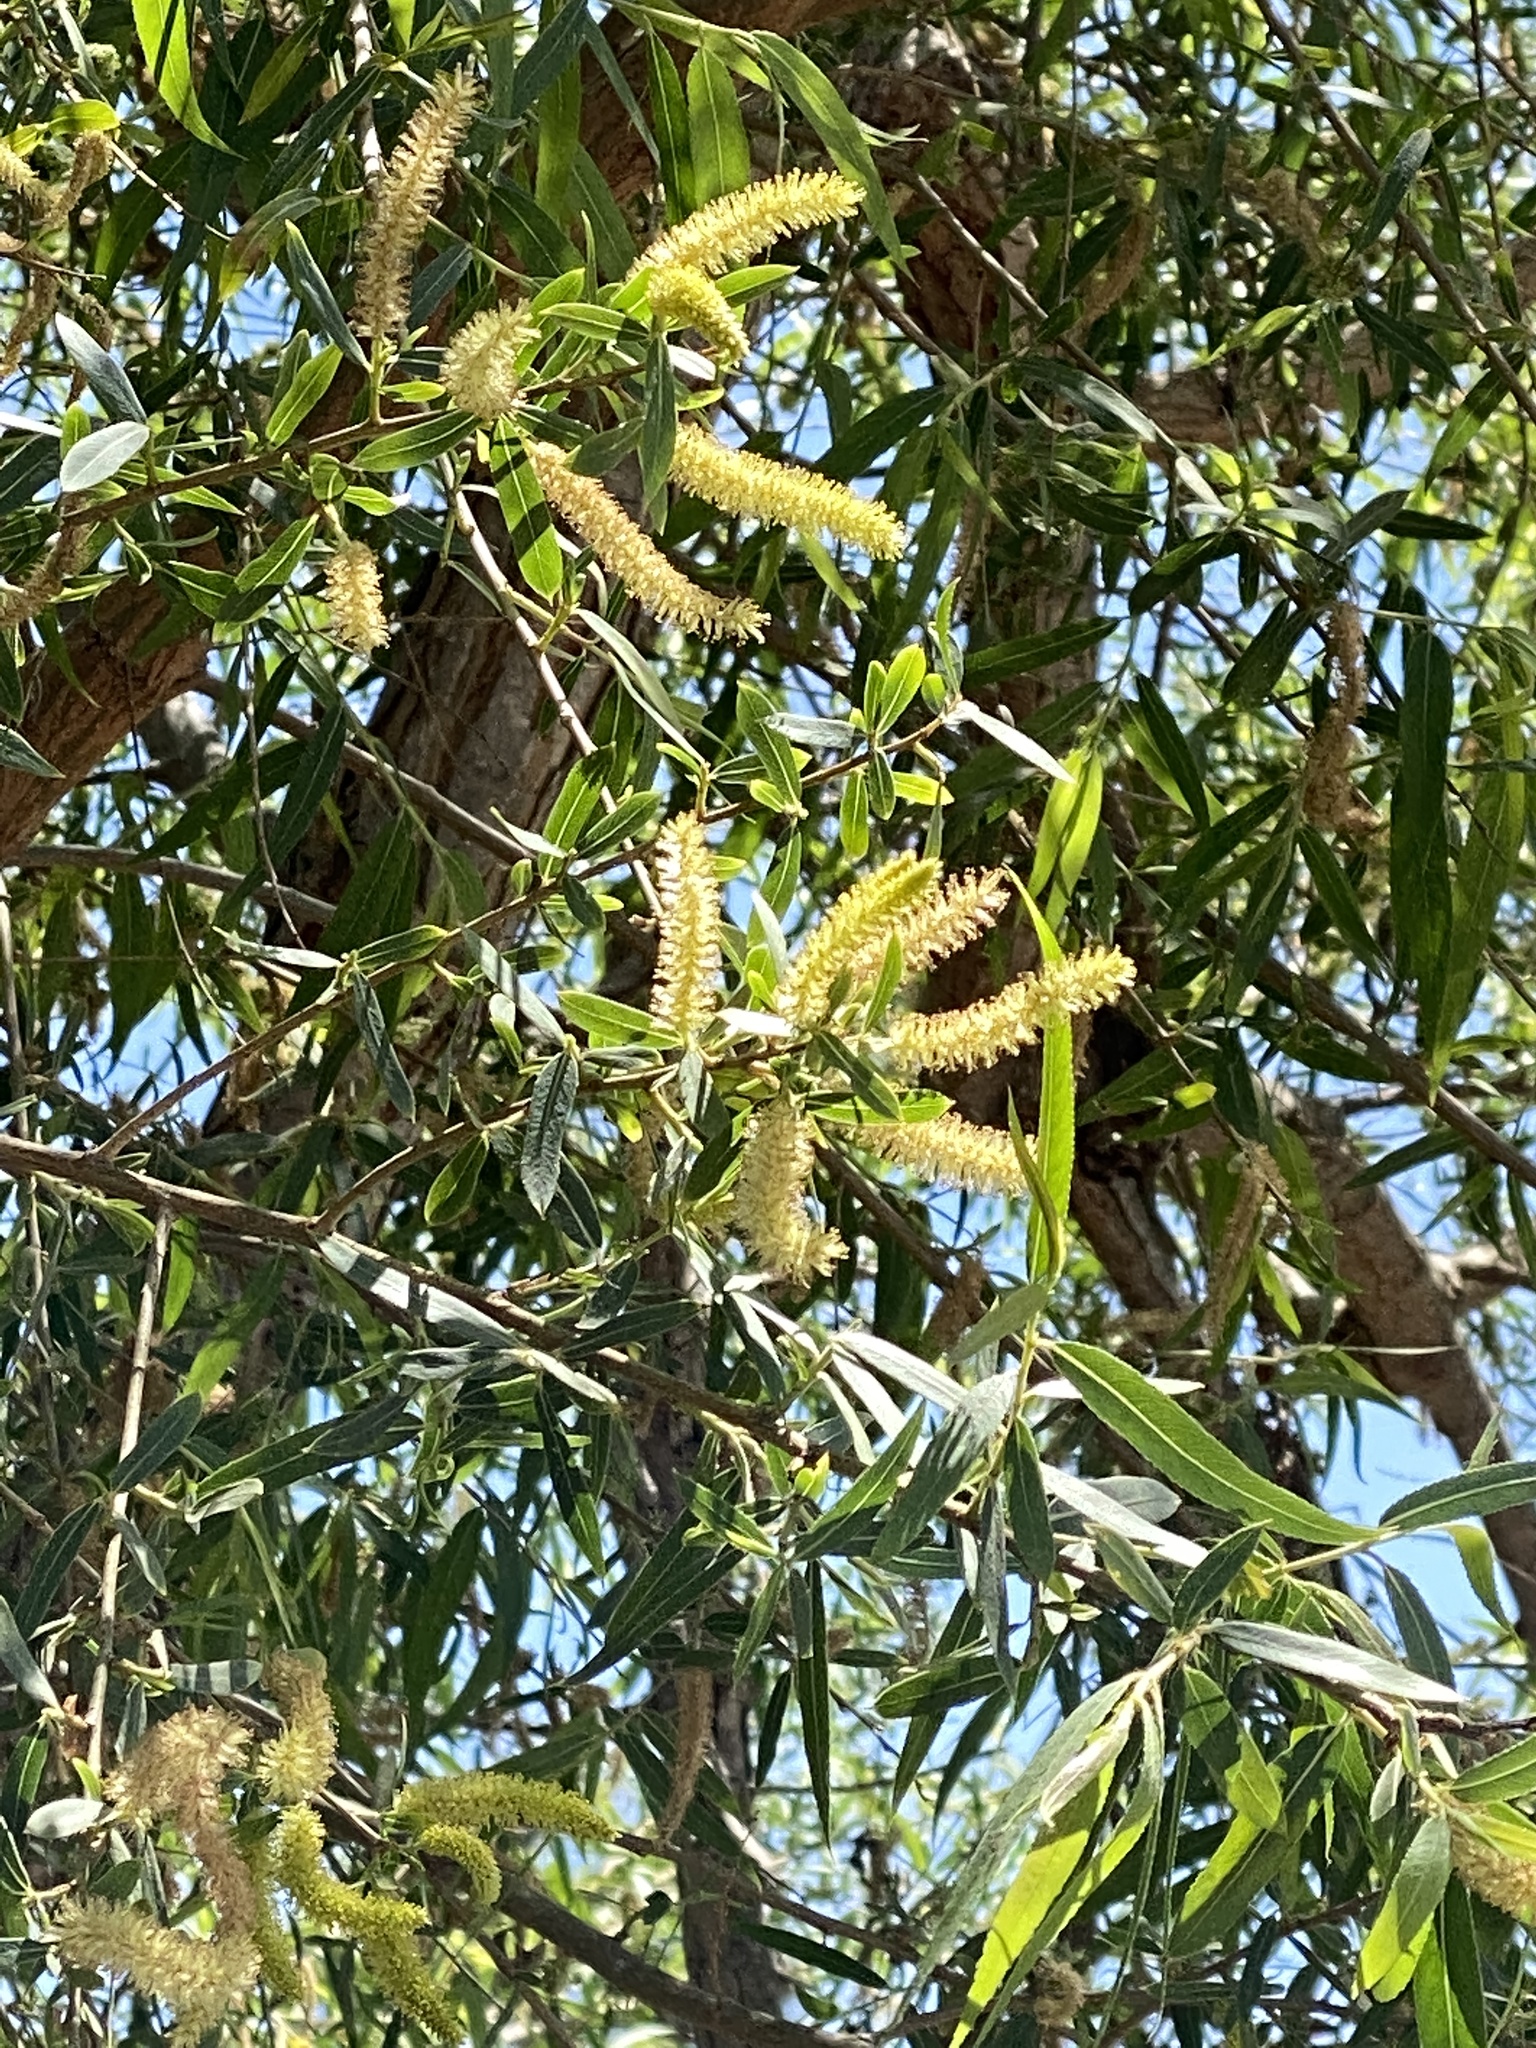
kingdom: Plantae
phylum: Tracheophyta
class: Magnoliopsida
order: Malpighiales
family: Salicaceae
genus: Salix
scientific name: Salix gooddingii
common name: Goodding's willow
